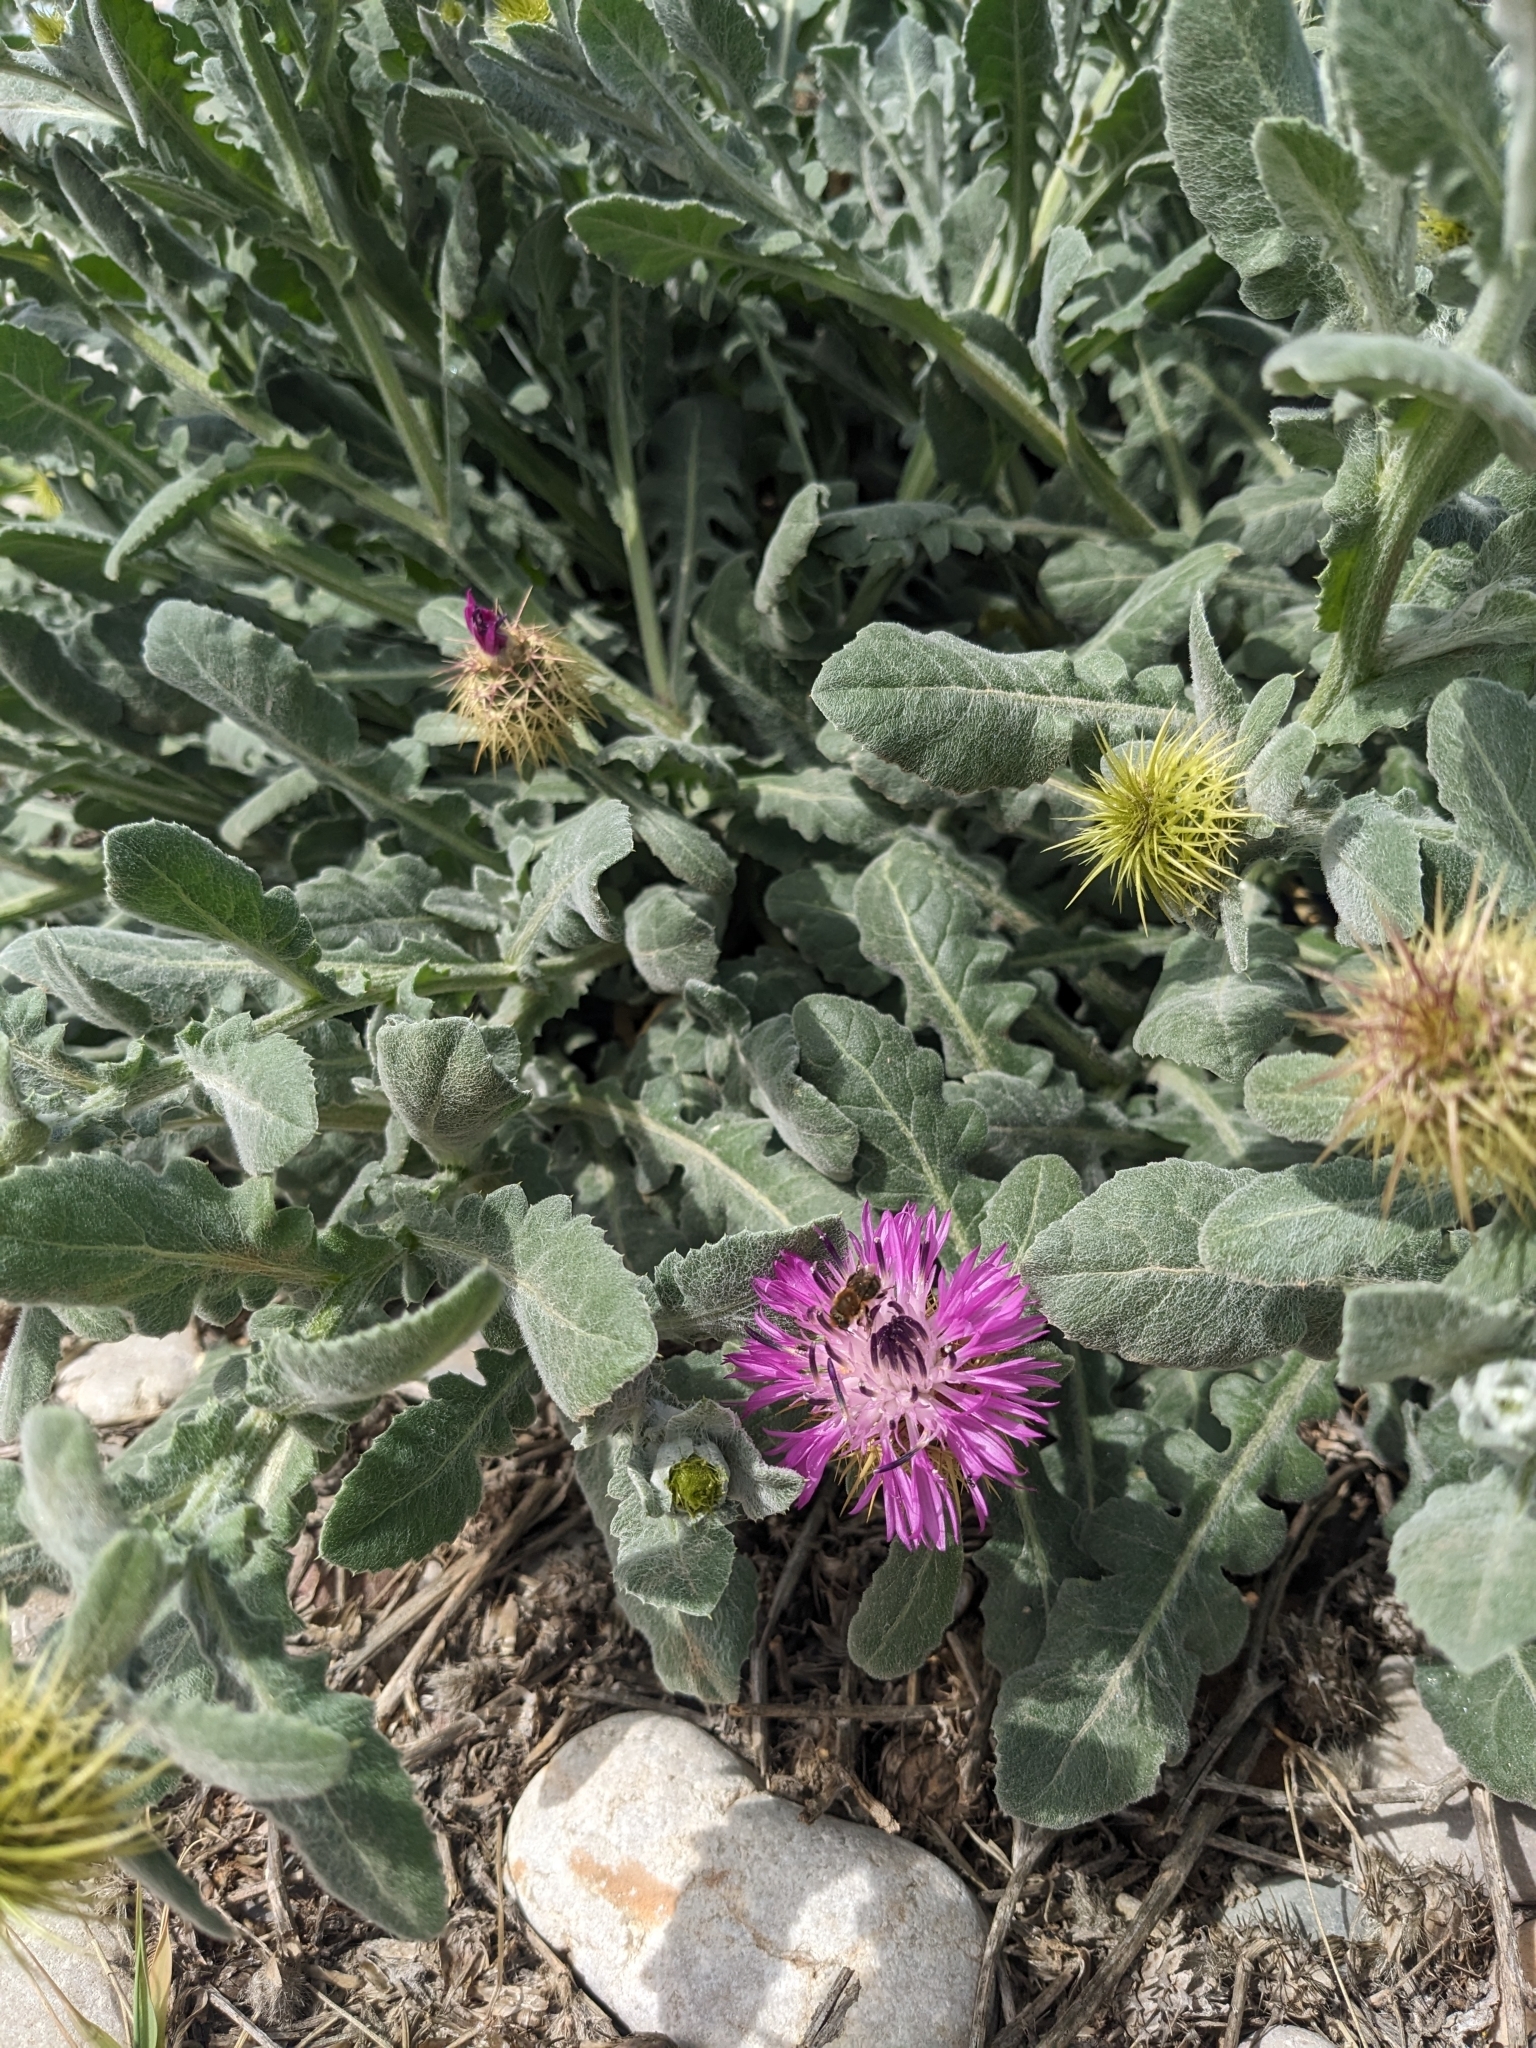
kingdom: Plantae
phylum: Tracheophyta
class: Magnoliopsida
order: Asterales
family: Asteraceae
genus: Centaurea
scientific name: Centaurea seridis
